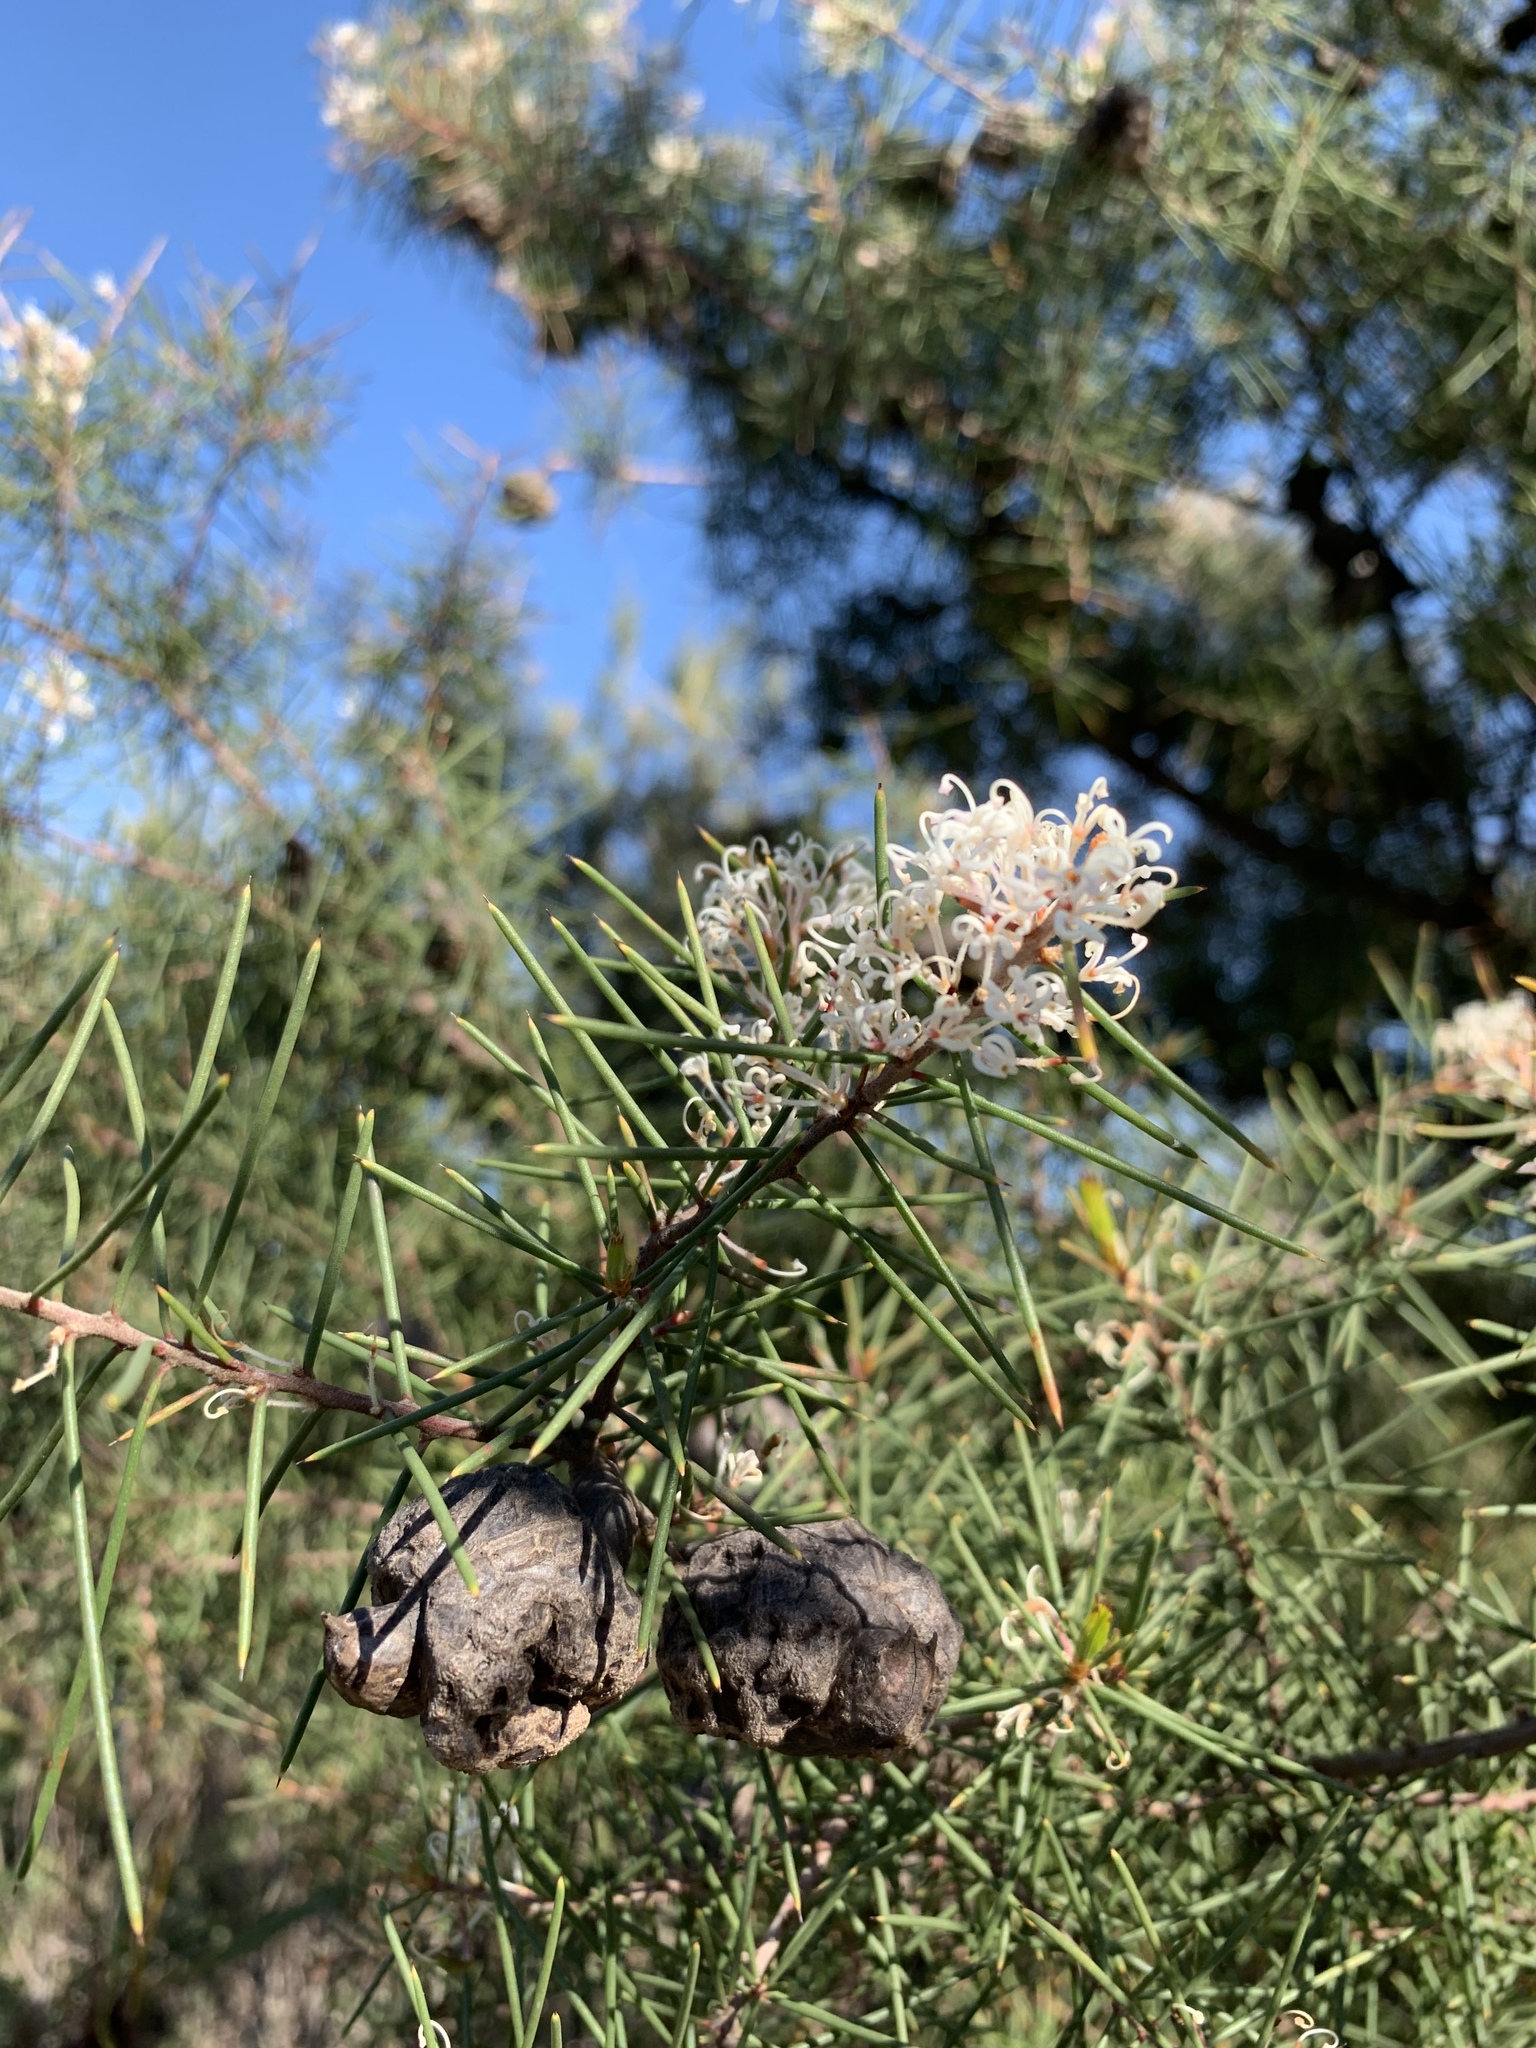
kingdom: Plantae
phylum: Tracheophyta
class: Magnoliopsida
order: Proteales
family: Proteaceae
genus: Hakea
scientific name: Hakea sericea
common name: Needle bush
